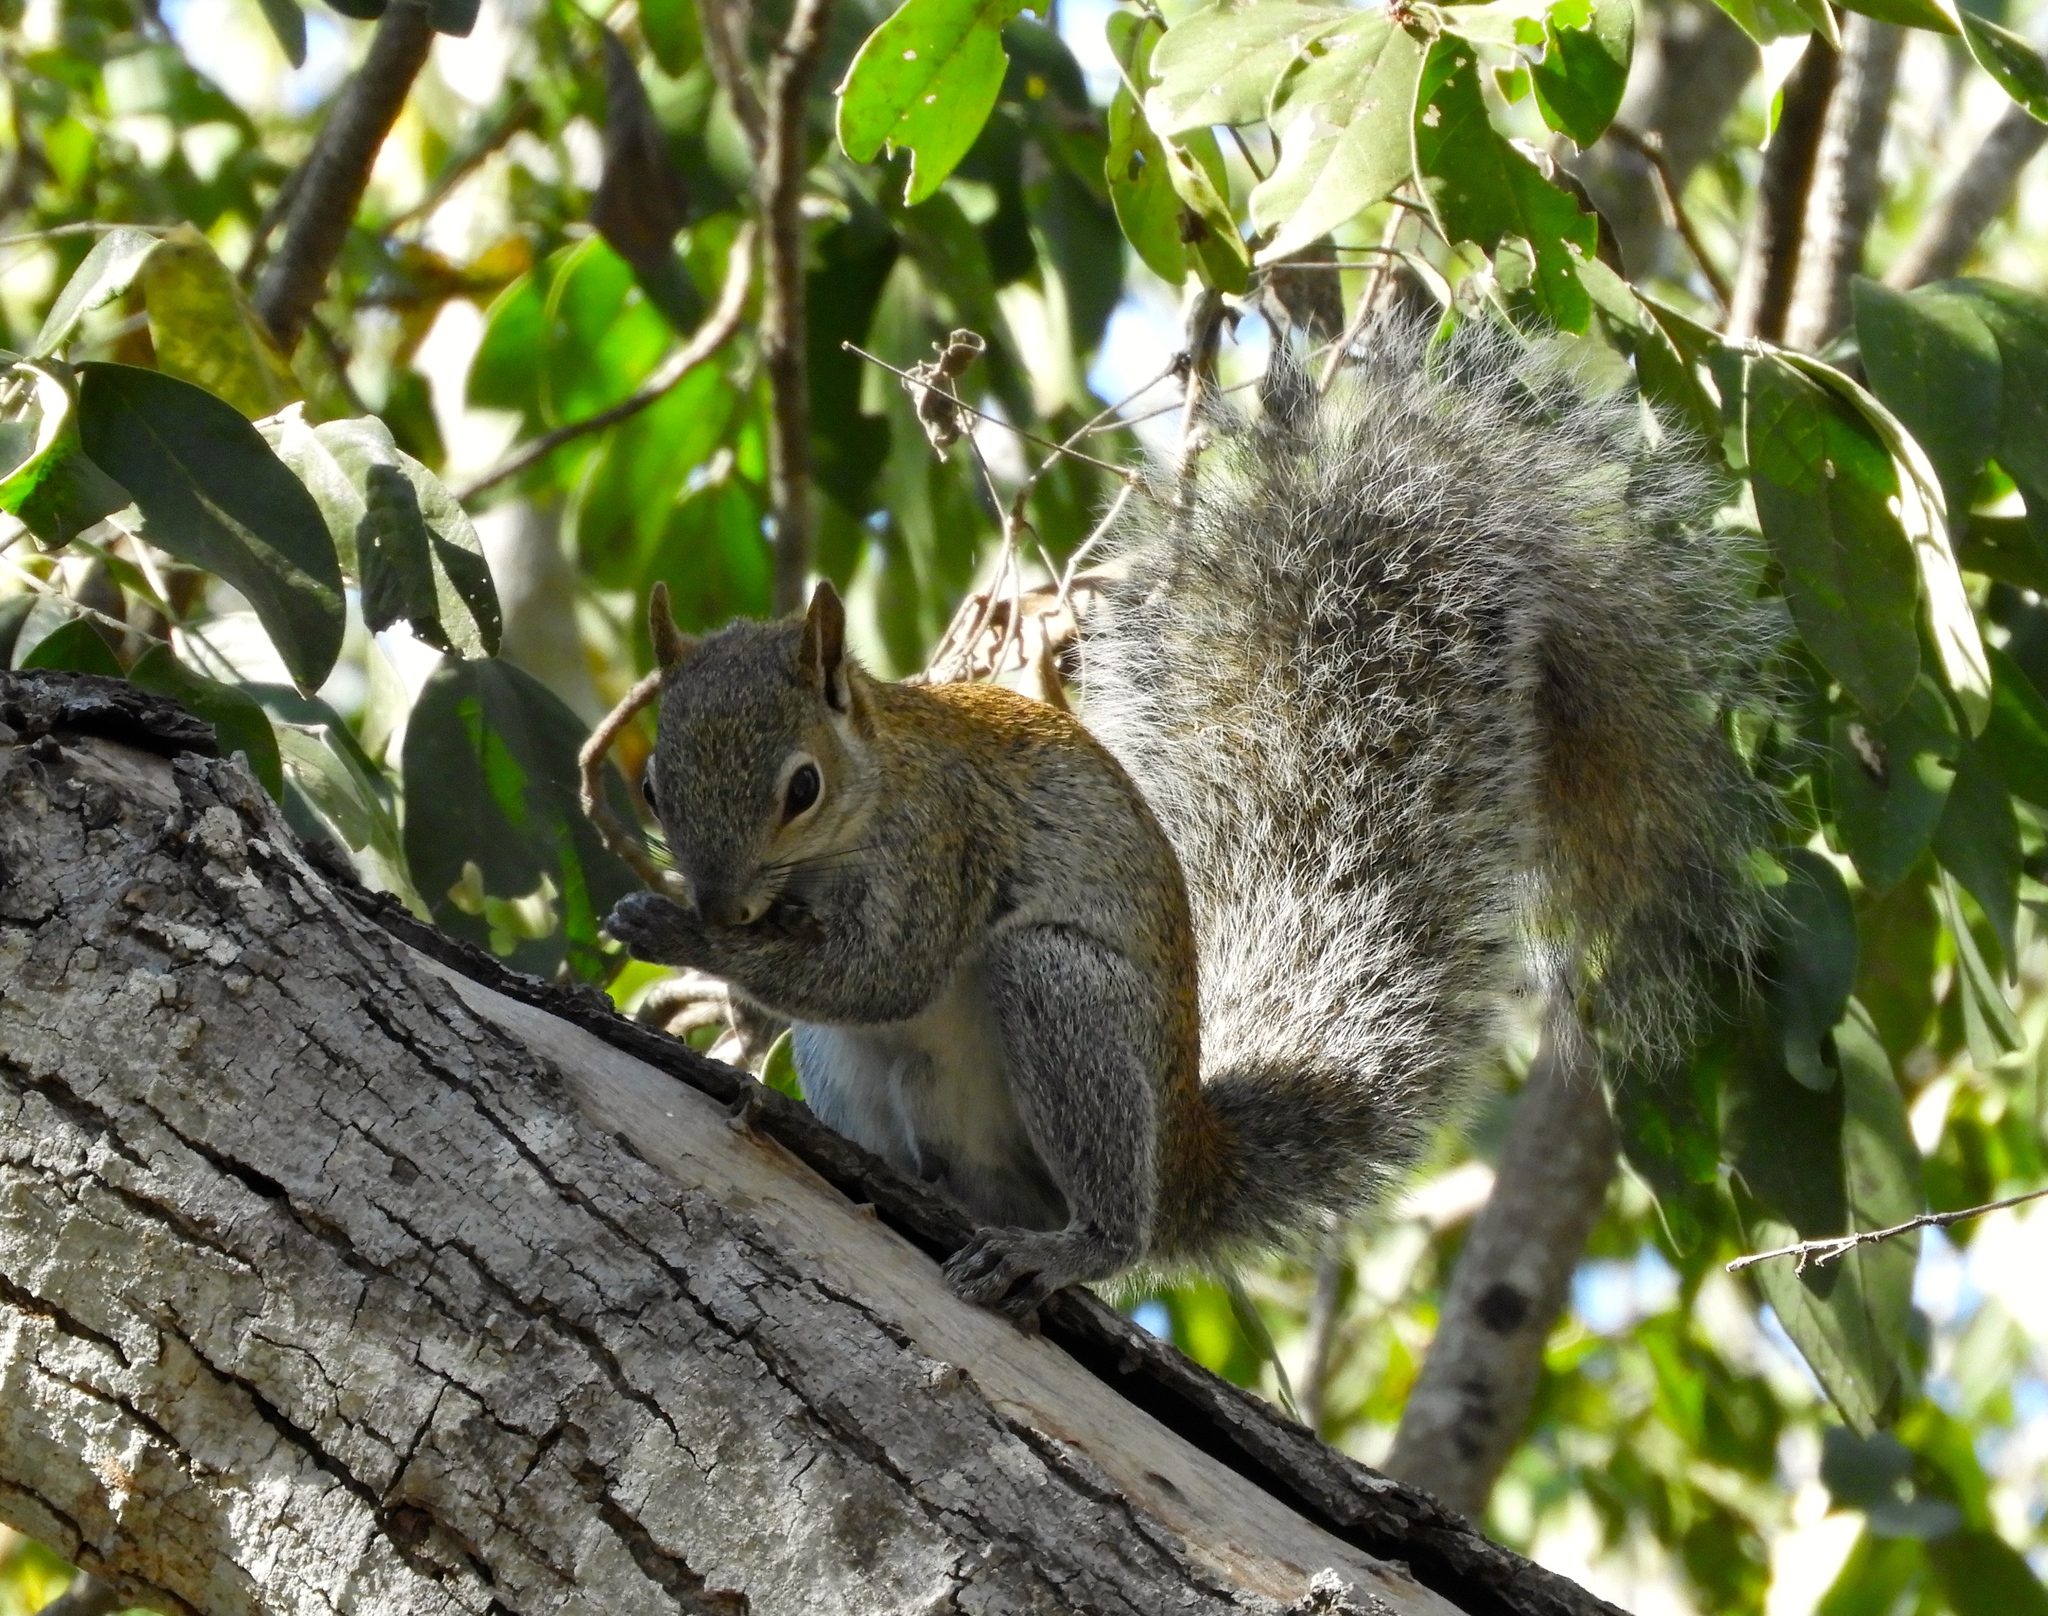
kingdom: Animalia
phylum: Chordata
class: Mammalia
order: Rodentia
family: Sciuridae
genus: Sciurus
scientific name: Sciurus colliaei
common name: Collie's squirrel
